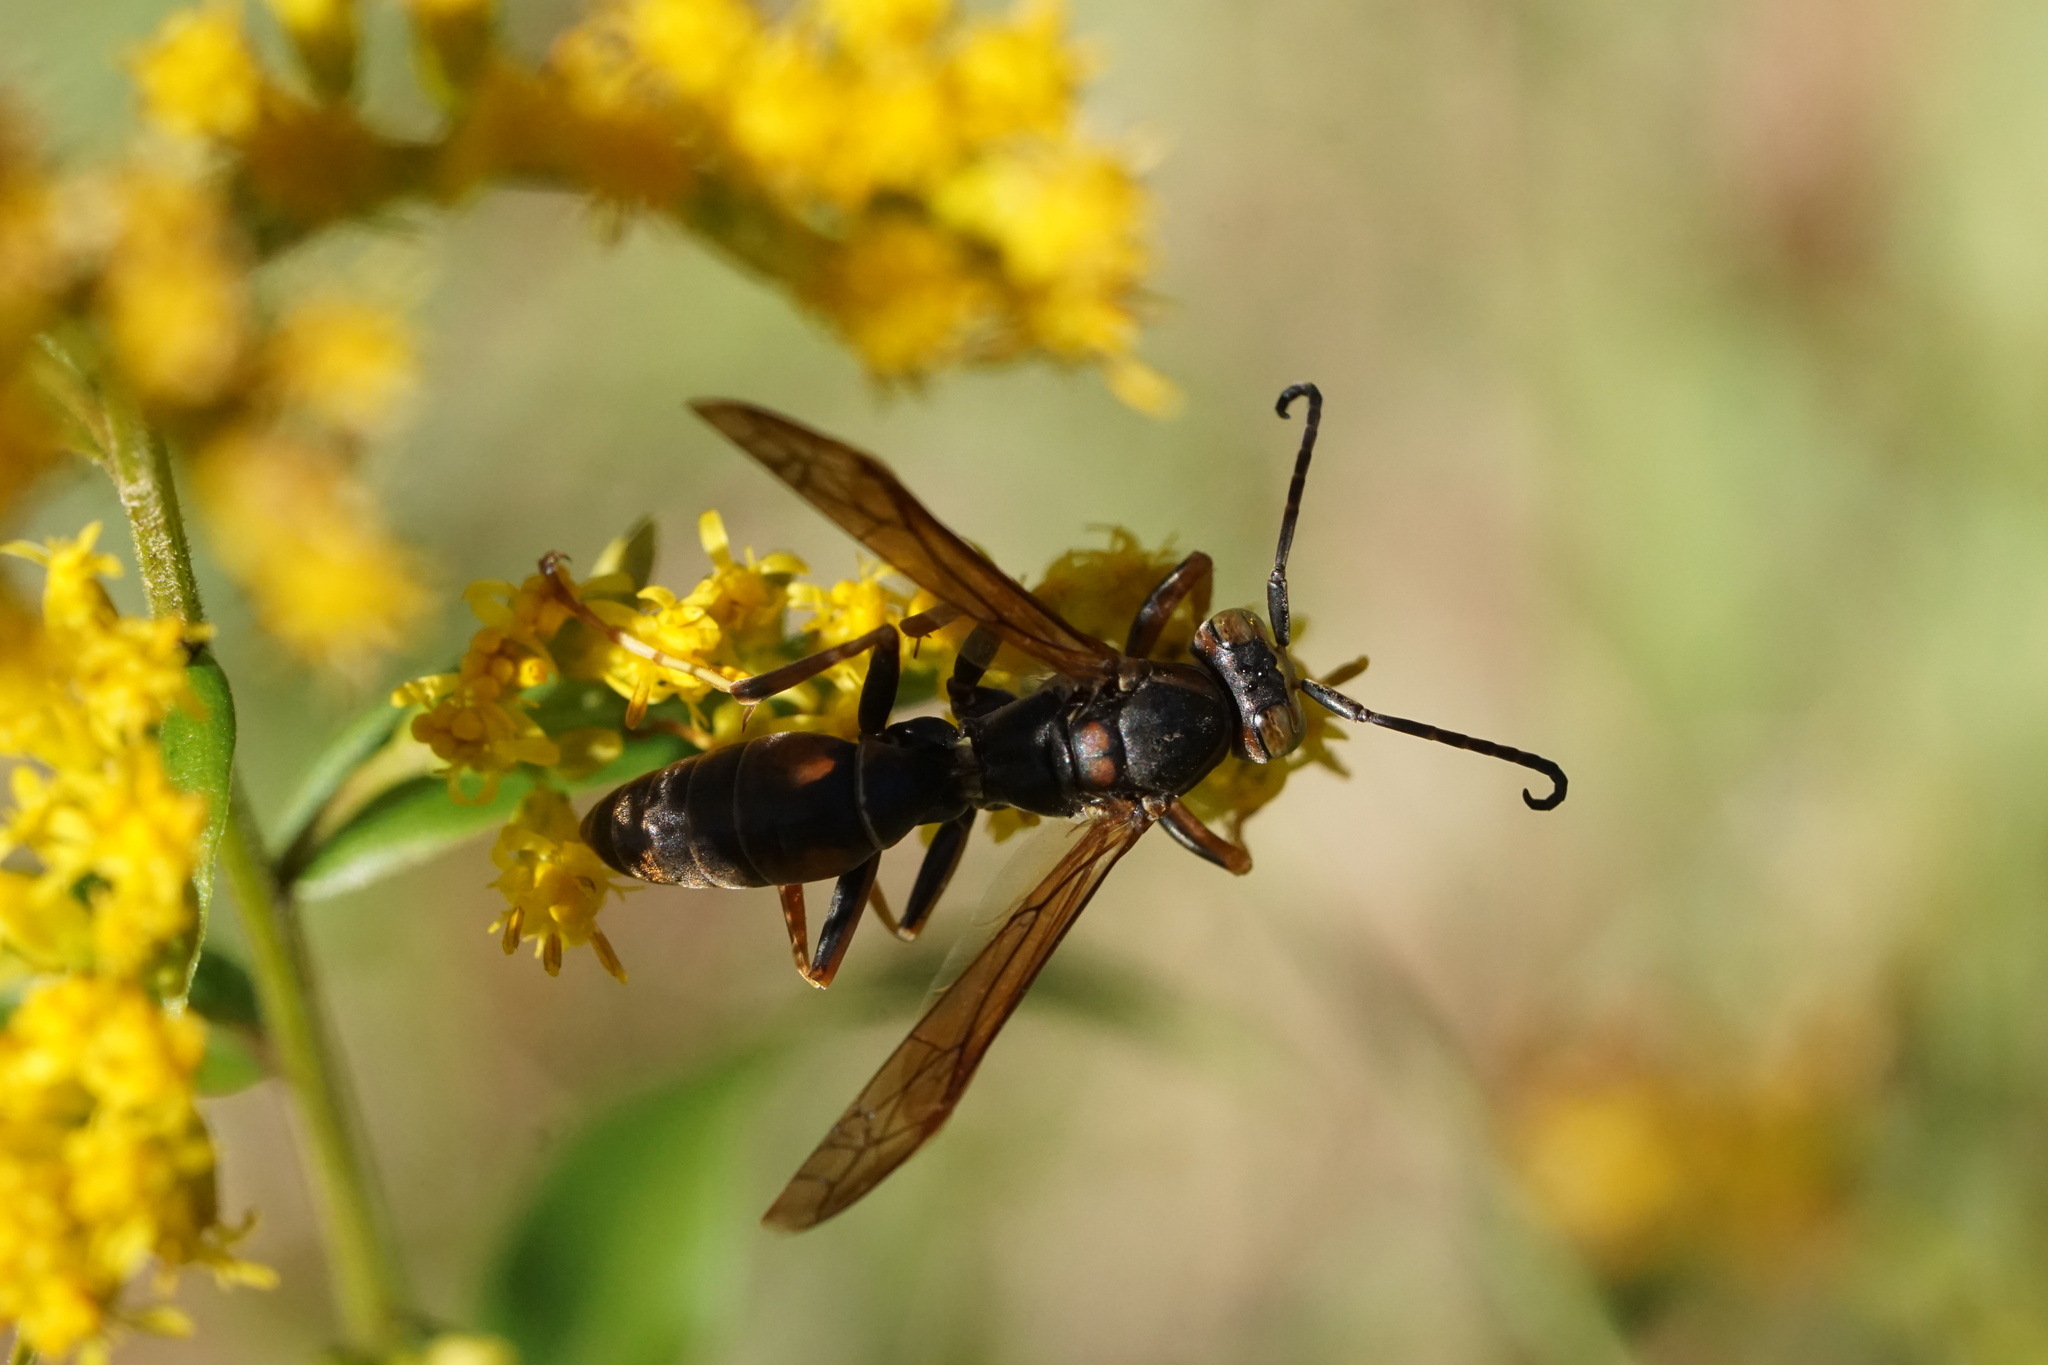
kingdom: Animalia
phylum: Arthropoda
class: Insecta
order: Hymenoptera
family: Eumenidae
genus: Polistes
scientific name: Polistes fuscatus
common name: Dark paper wasp
